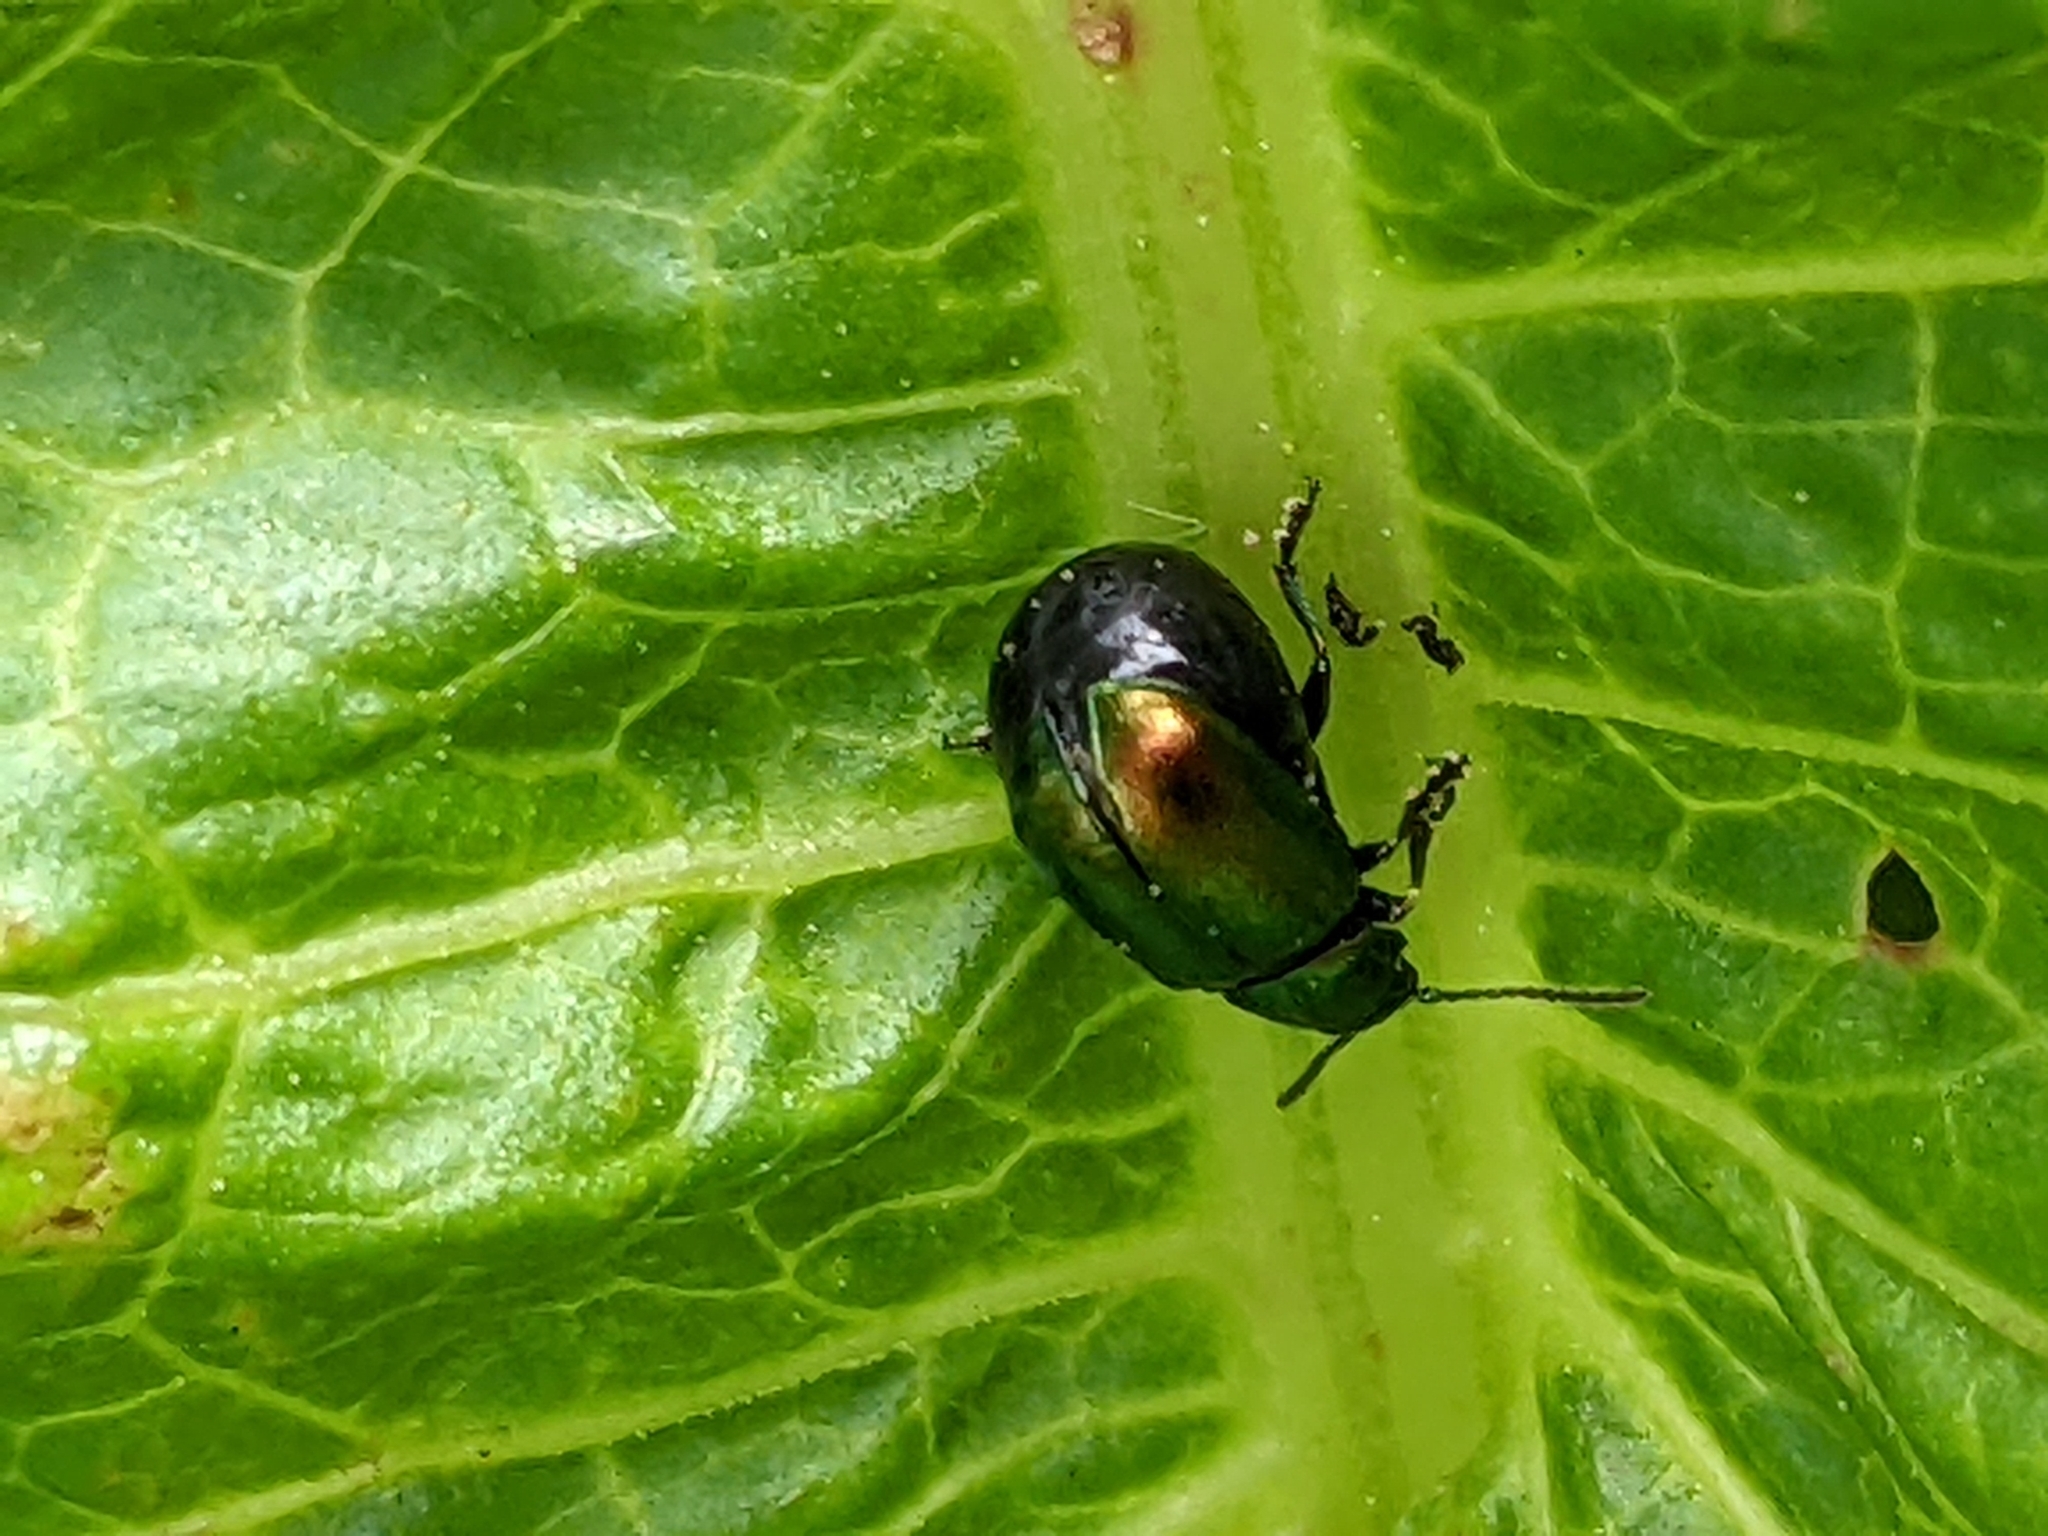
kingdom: Animalia
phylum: Arthropoda
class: Insecta
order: Coleoptera
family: Chrysomelidae
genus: Gastrophysa
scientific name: Gastrophysa viridula
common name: Green dock beetle
